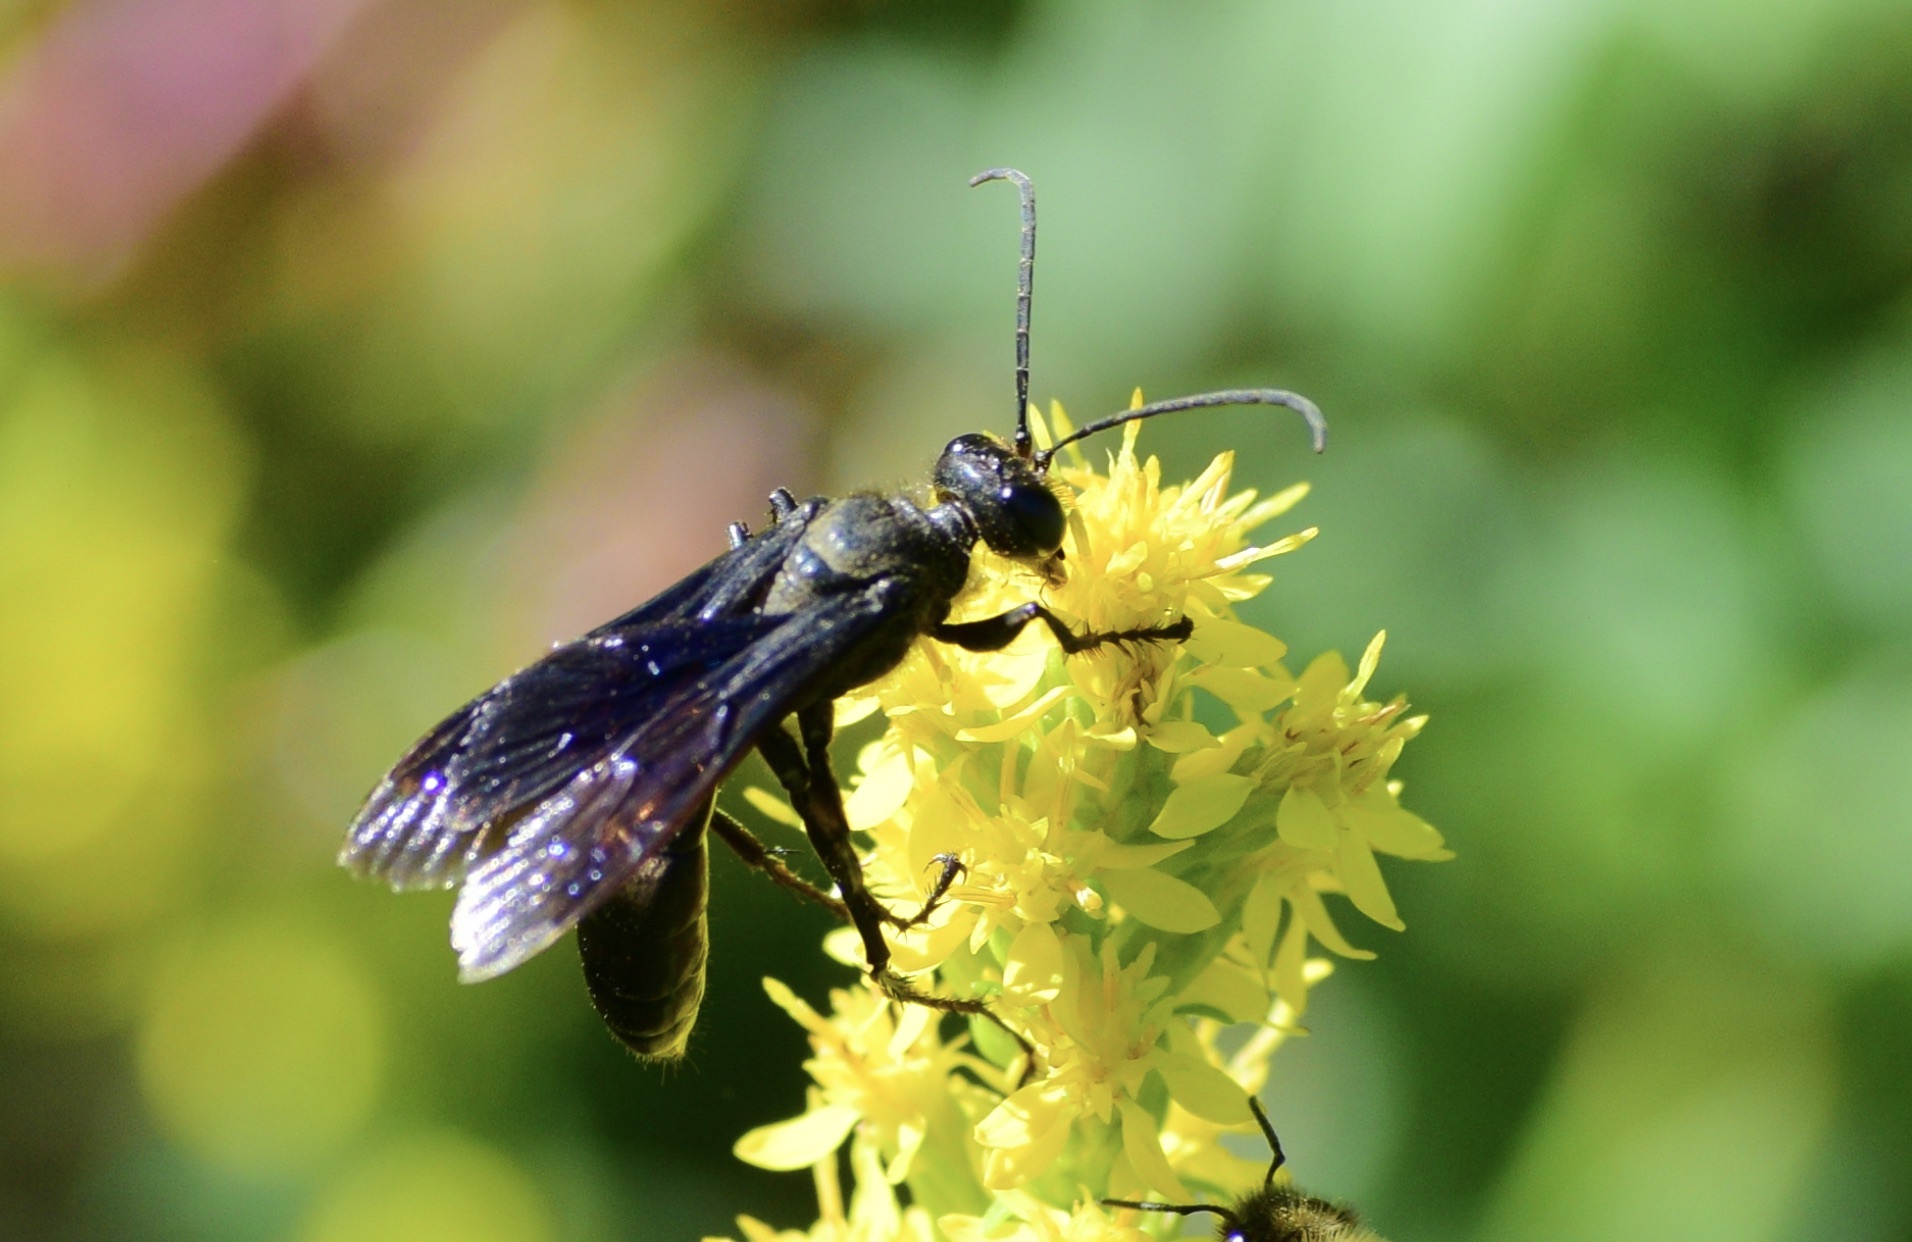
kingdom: Animalia
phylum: Arthropoda
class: Insecta
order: Hymenoptera
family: Sphecidae
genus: Sphex
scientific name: Sphex pensylvanicus
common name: Great black digger wasp
